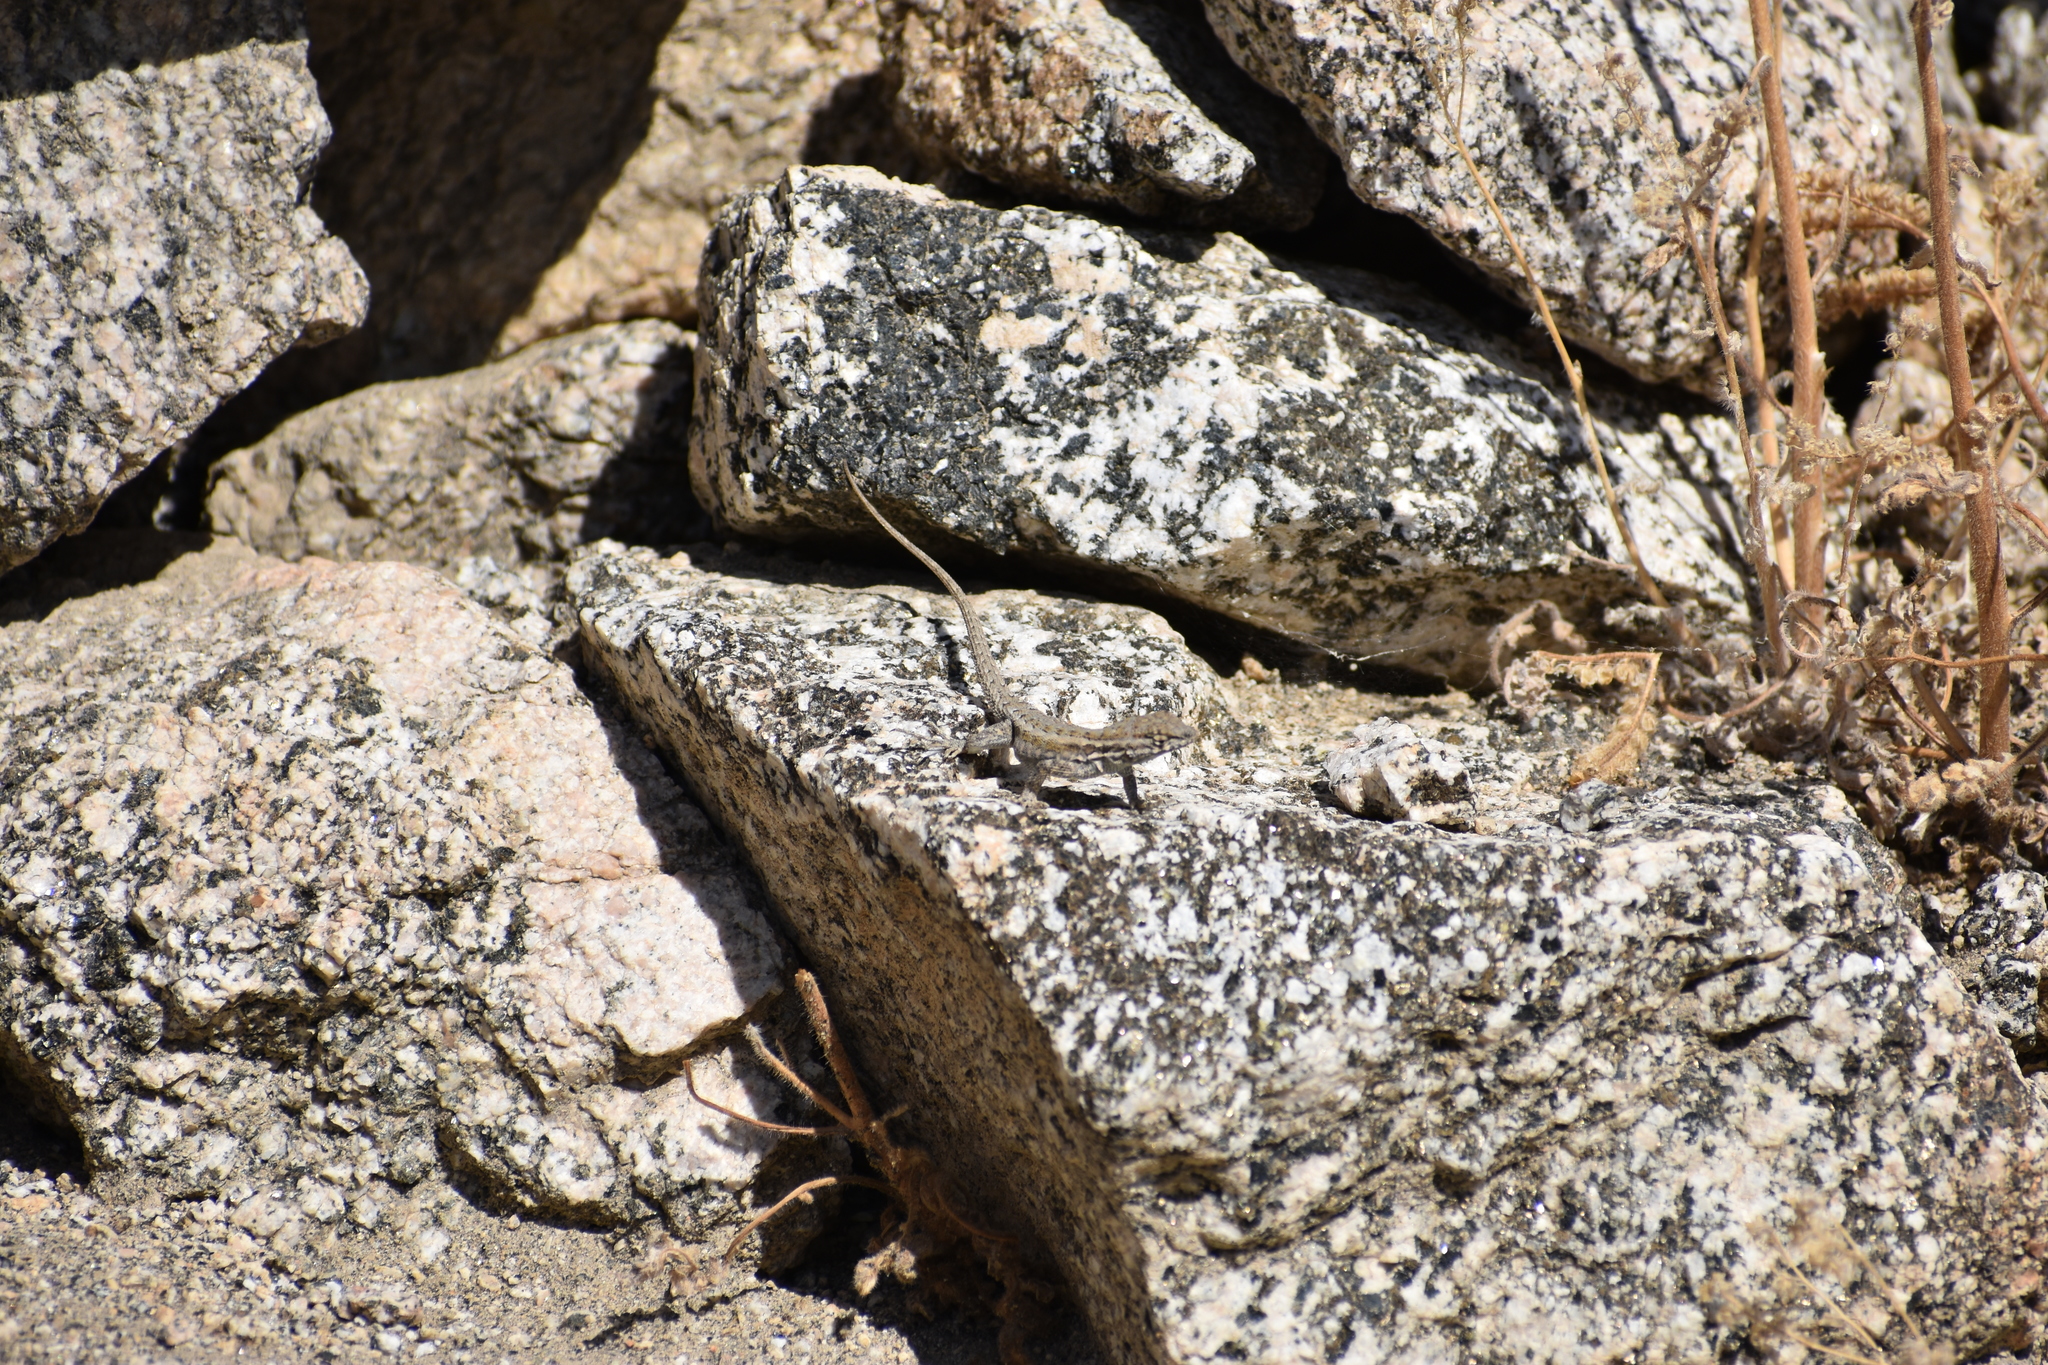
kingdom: Animalia
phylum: Chordata
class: Squamata
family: Phrynosomatidae
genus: Uta
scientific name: Uta stansburiana
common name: Side-blotched lizard
